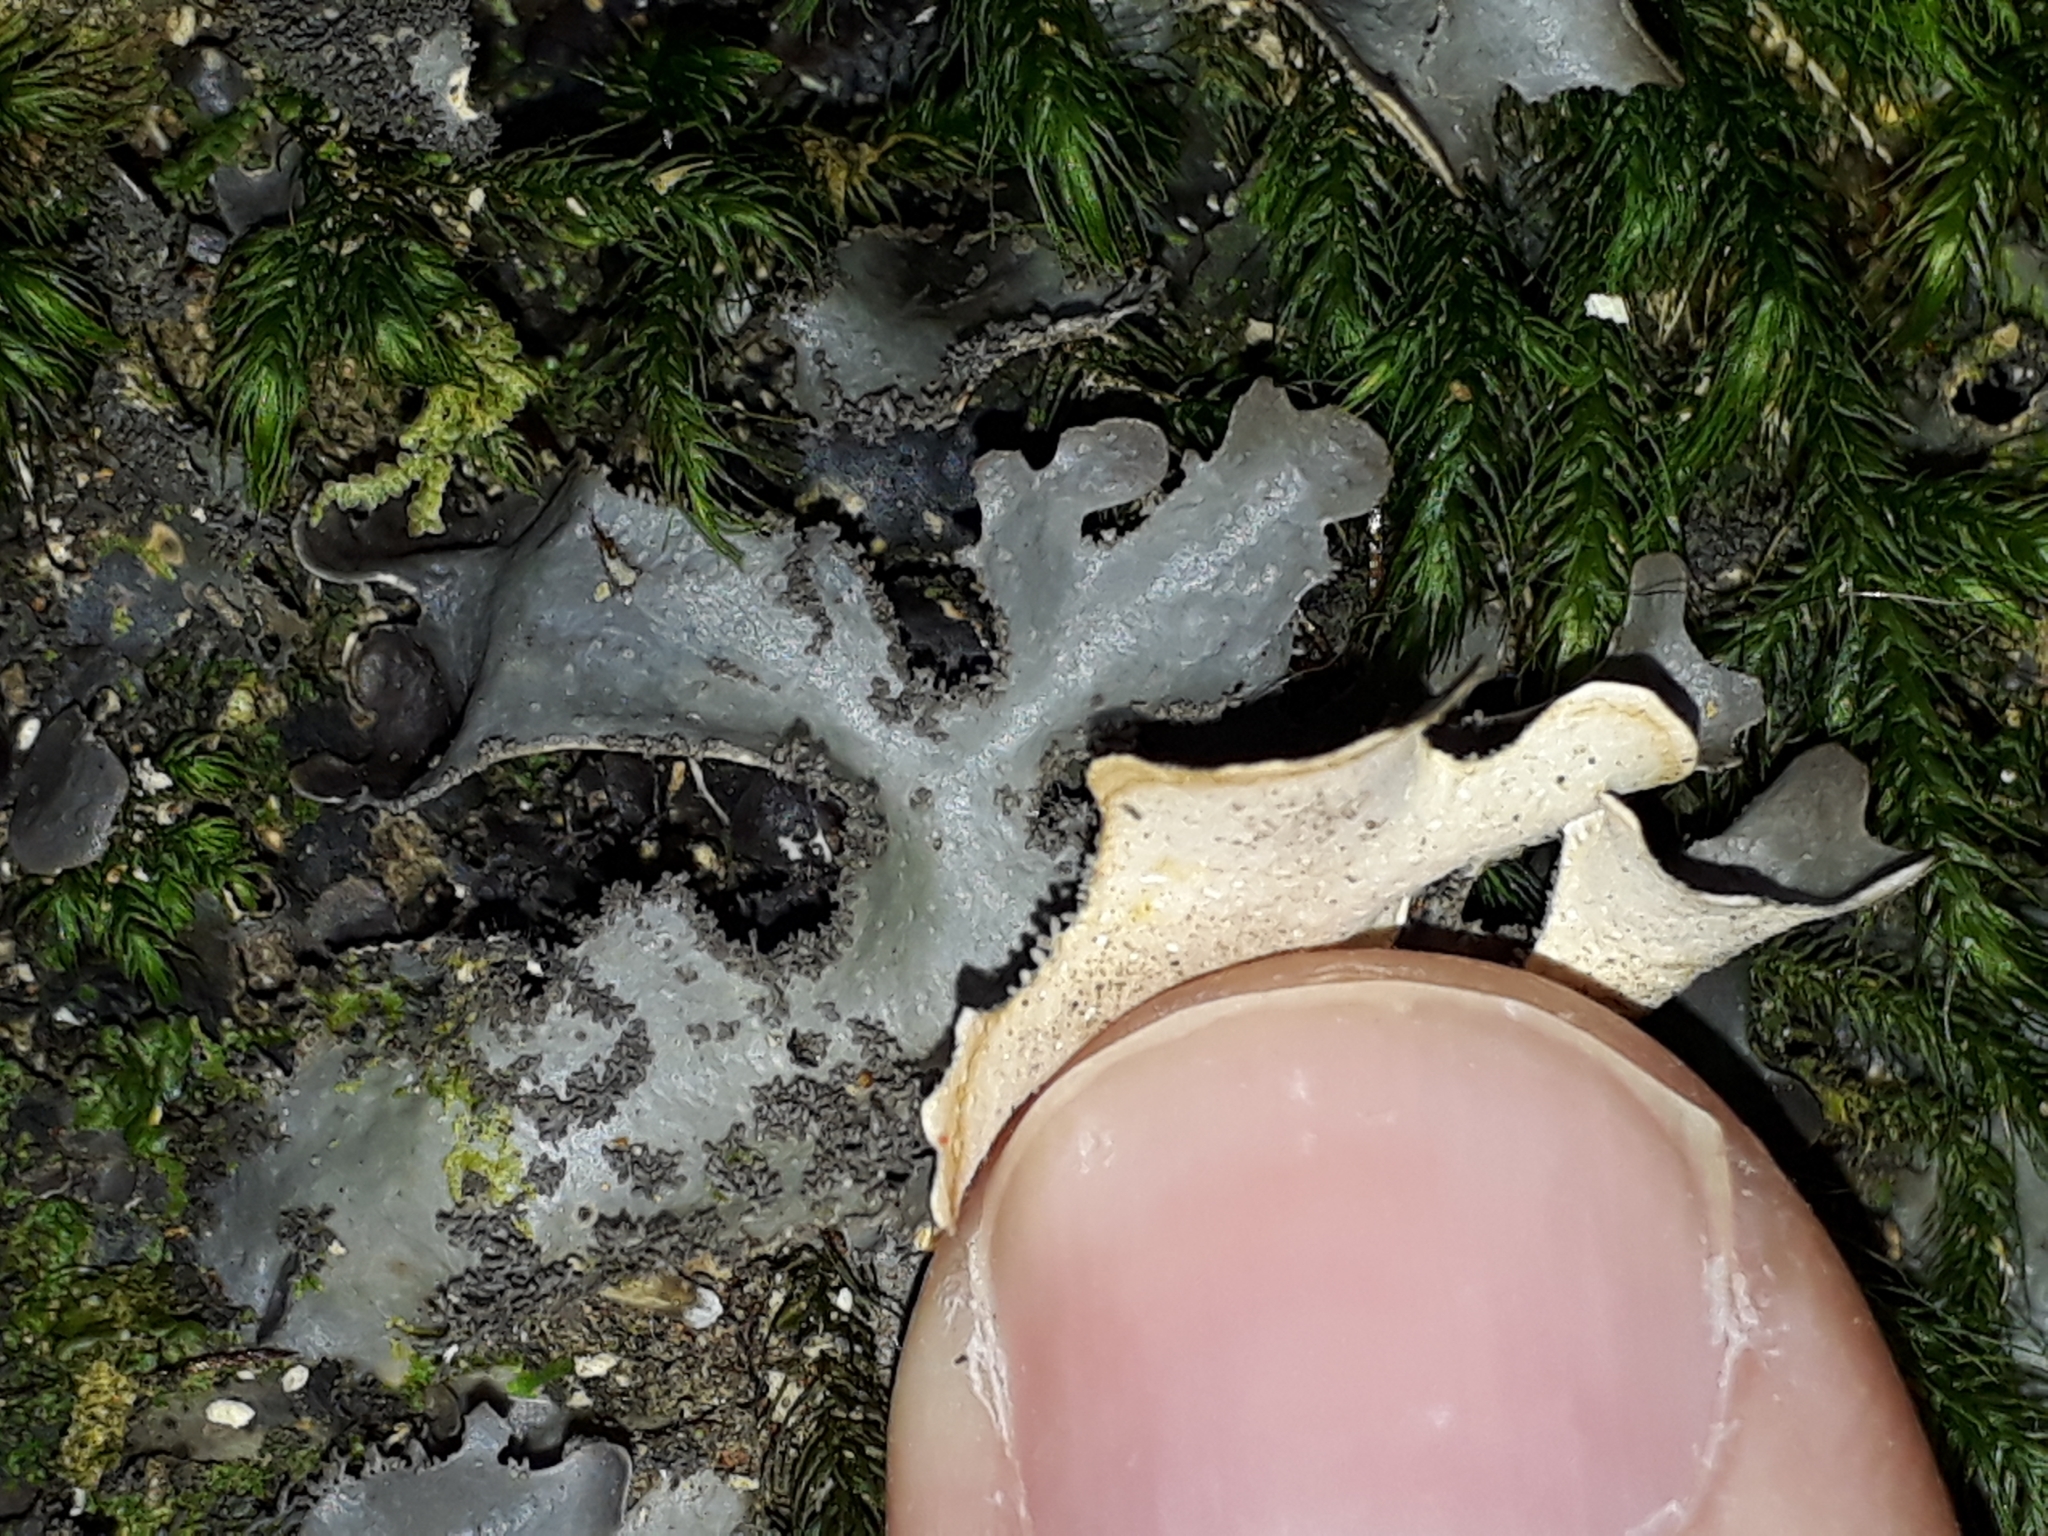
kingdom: Fungi
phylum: Ascomycota
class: Lecanoromycetes
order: Peltigerales
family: Lobariaceae
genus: Pseudocyphellaria
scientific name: Pseudocyphellaria dissimilis
